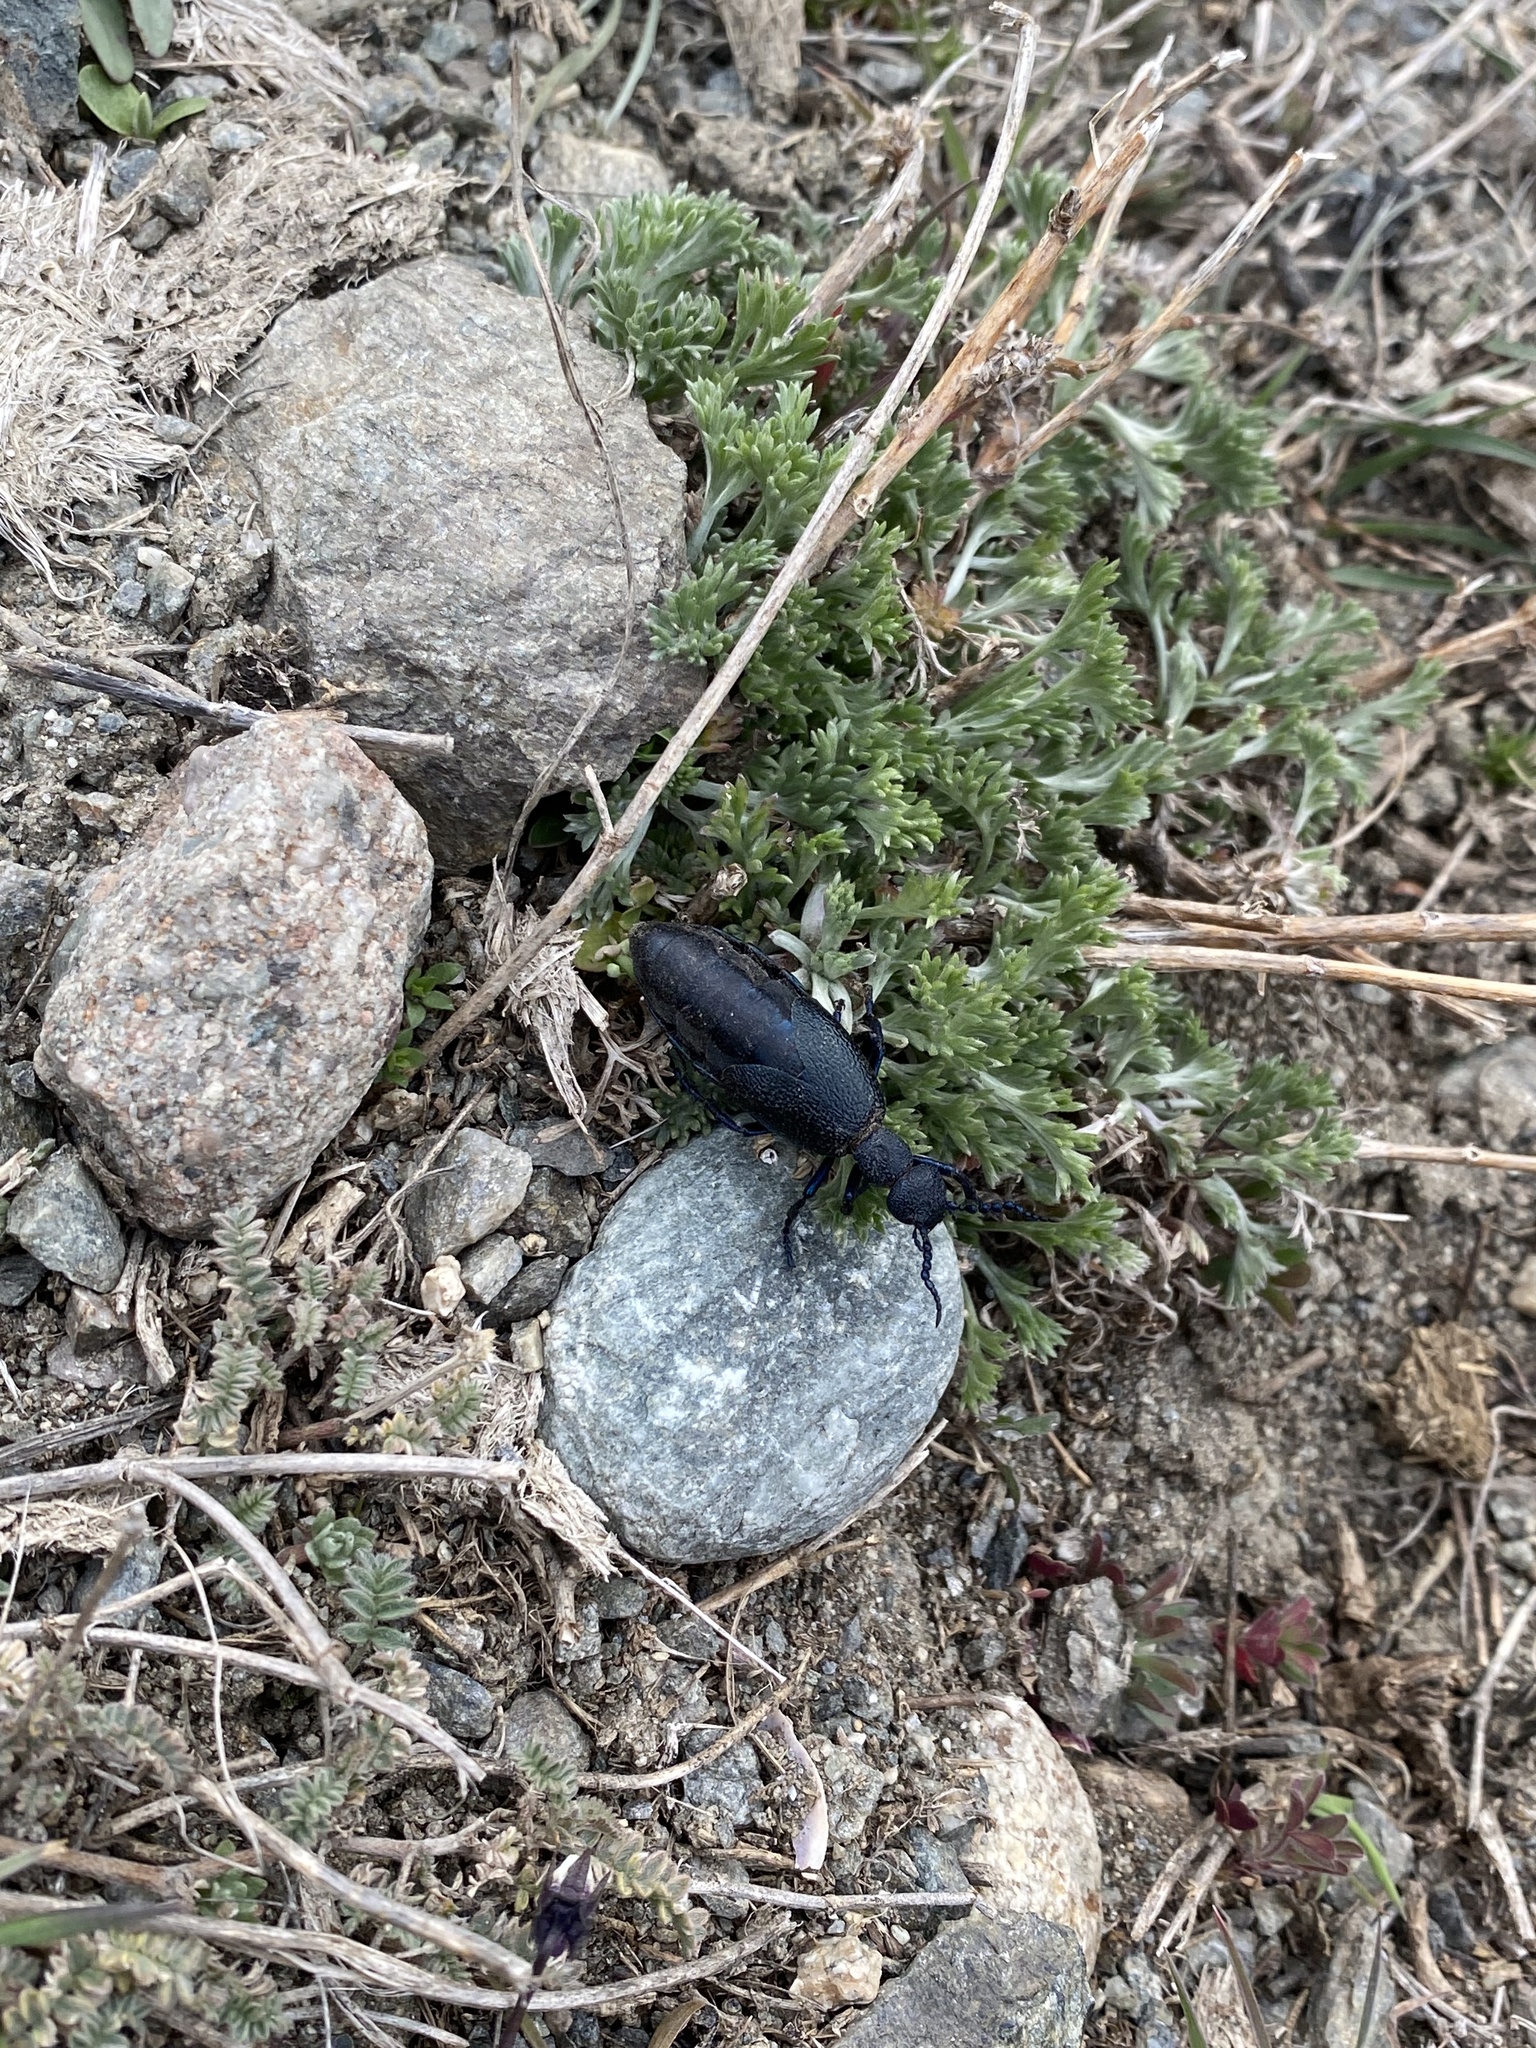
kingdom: Animalia
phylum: Arthropoda
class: Insecta
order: Coleoptera
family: Meloidae
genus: Meloe
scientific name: Meloe proscarabaeus
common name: Black oil-beetle
